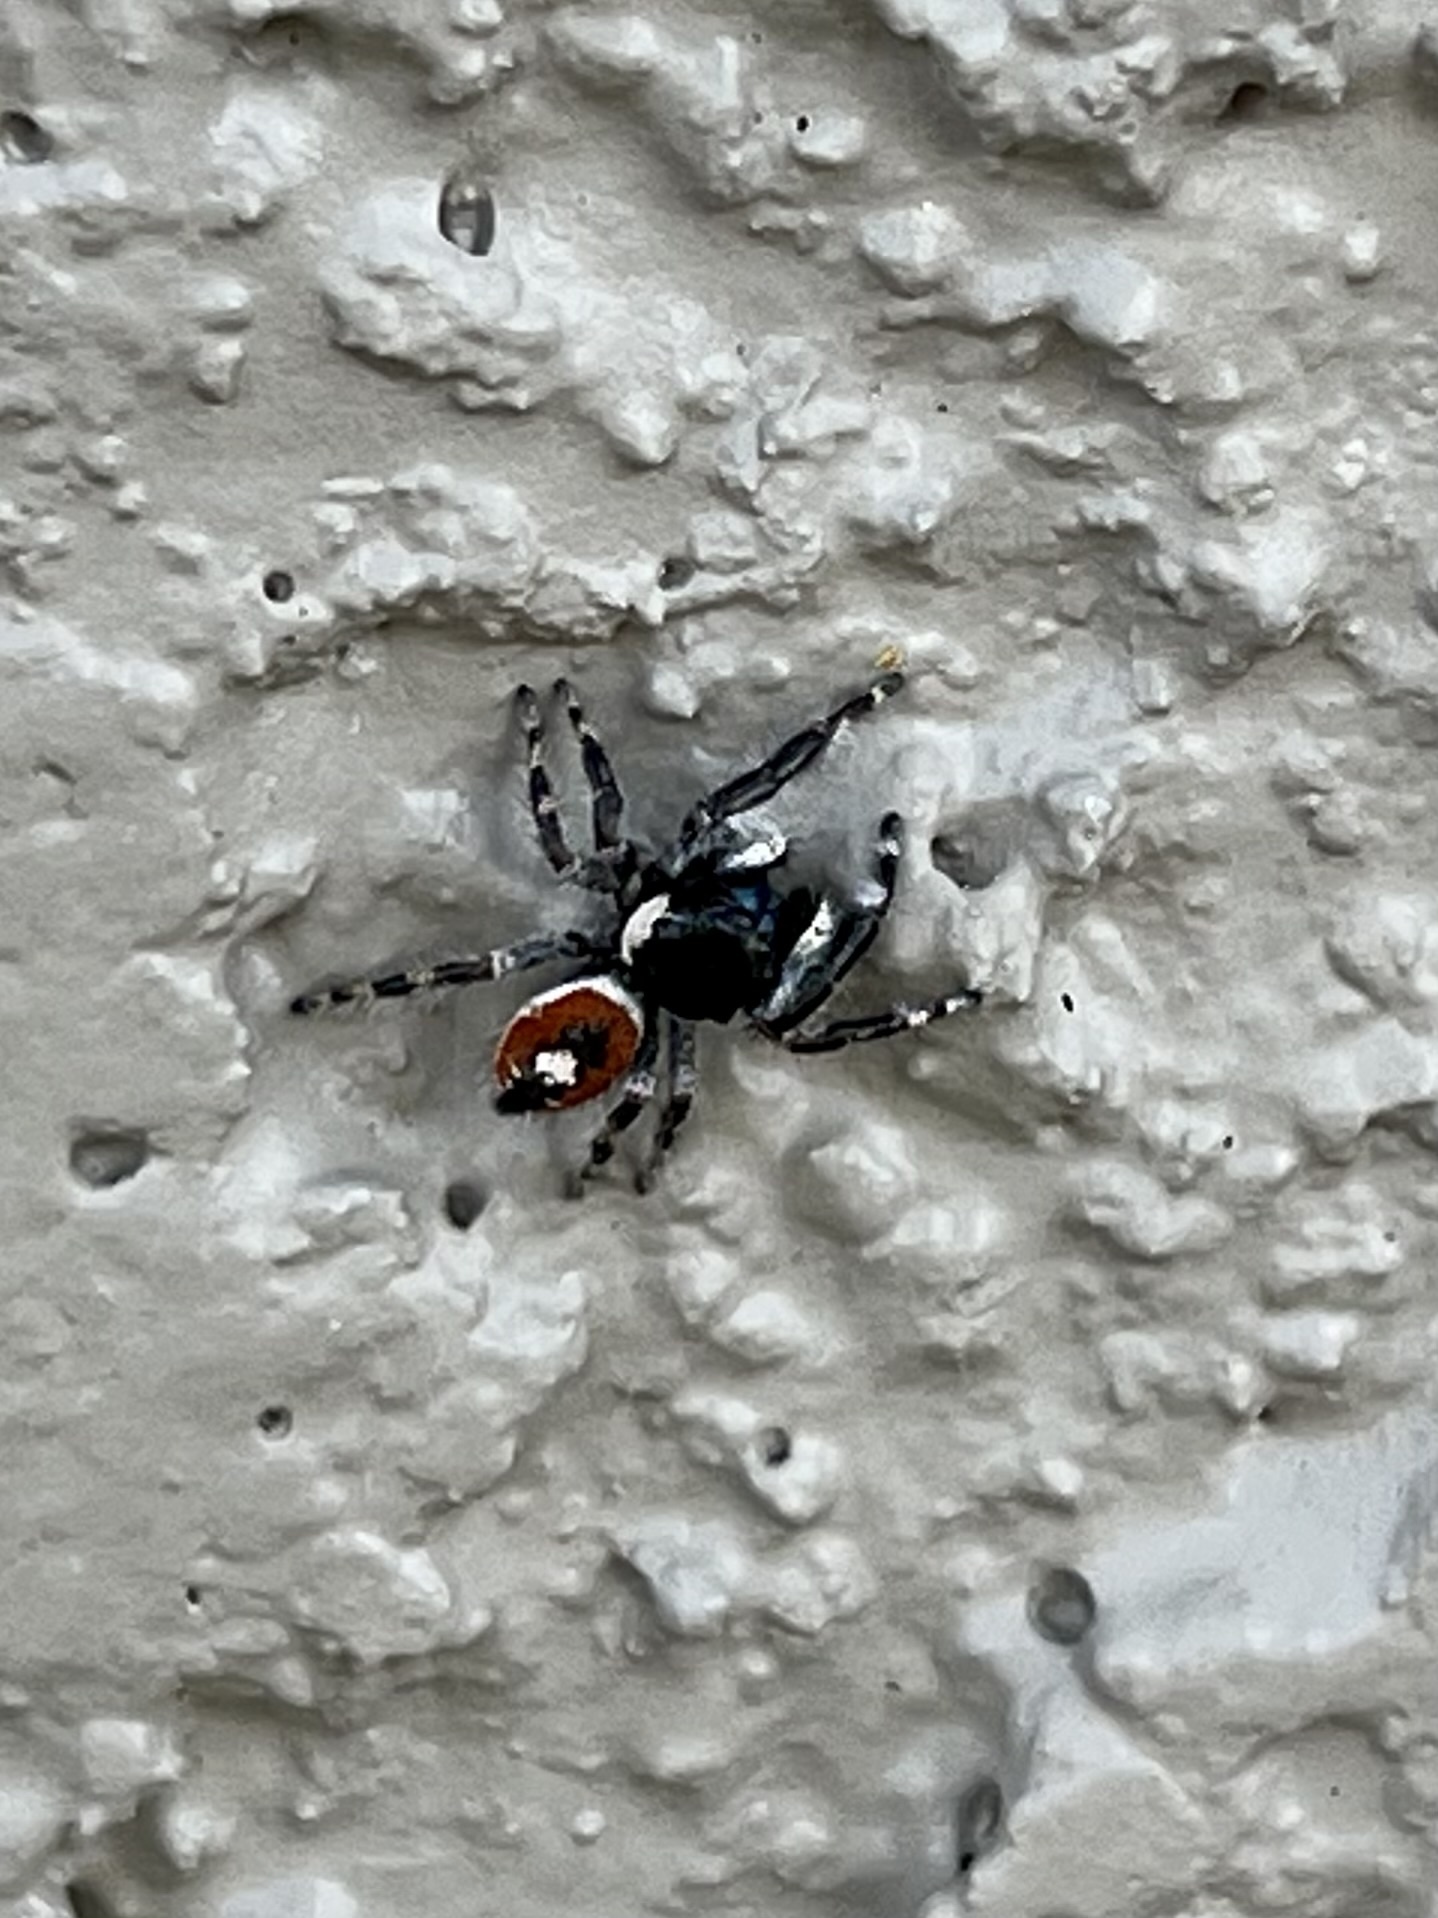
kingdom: Animalia
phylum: Arthropoda
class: Arachnida
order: Araneae
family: Salticidae
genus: Phidippus
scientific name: Phidippus californicus
